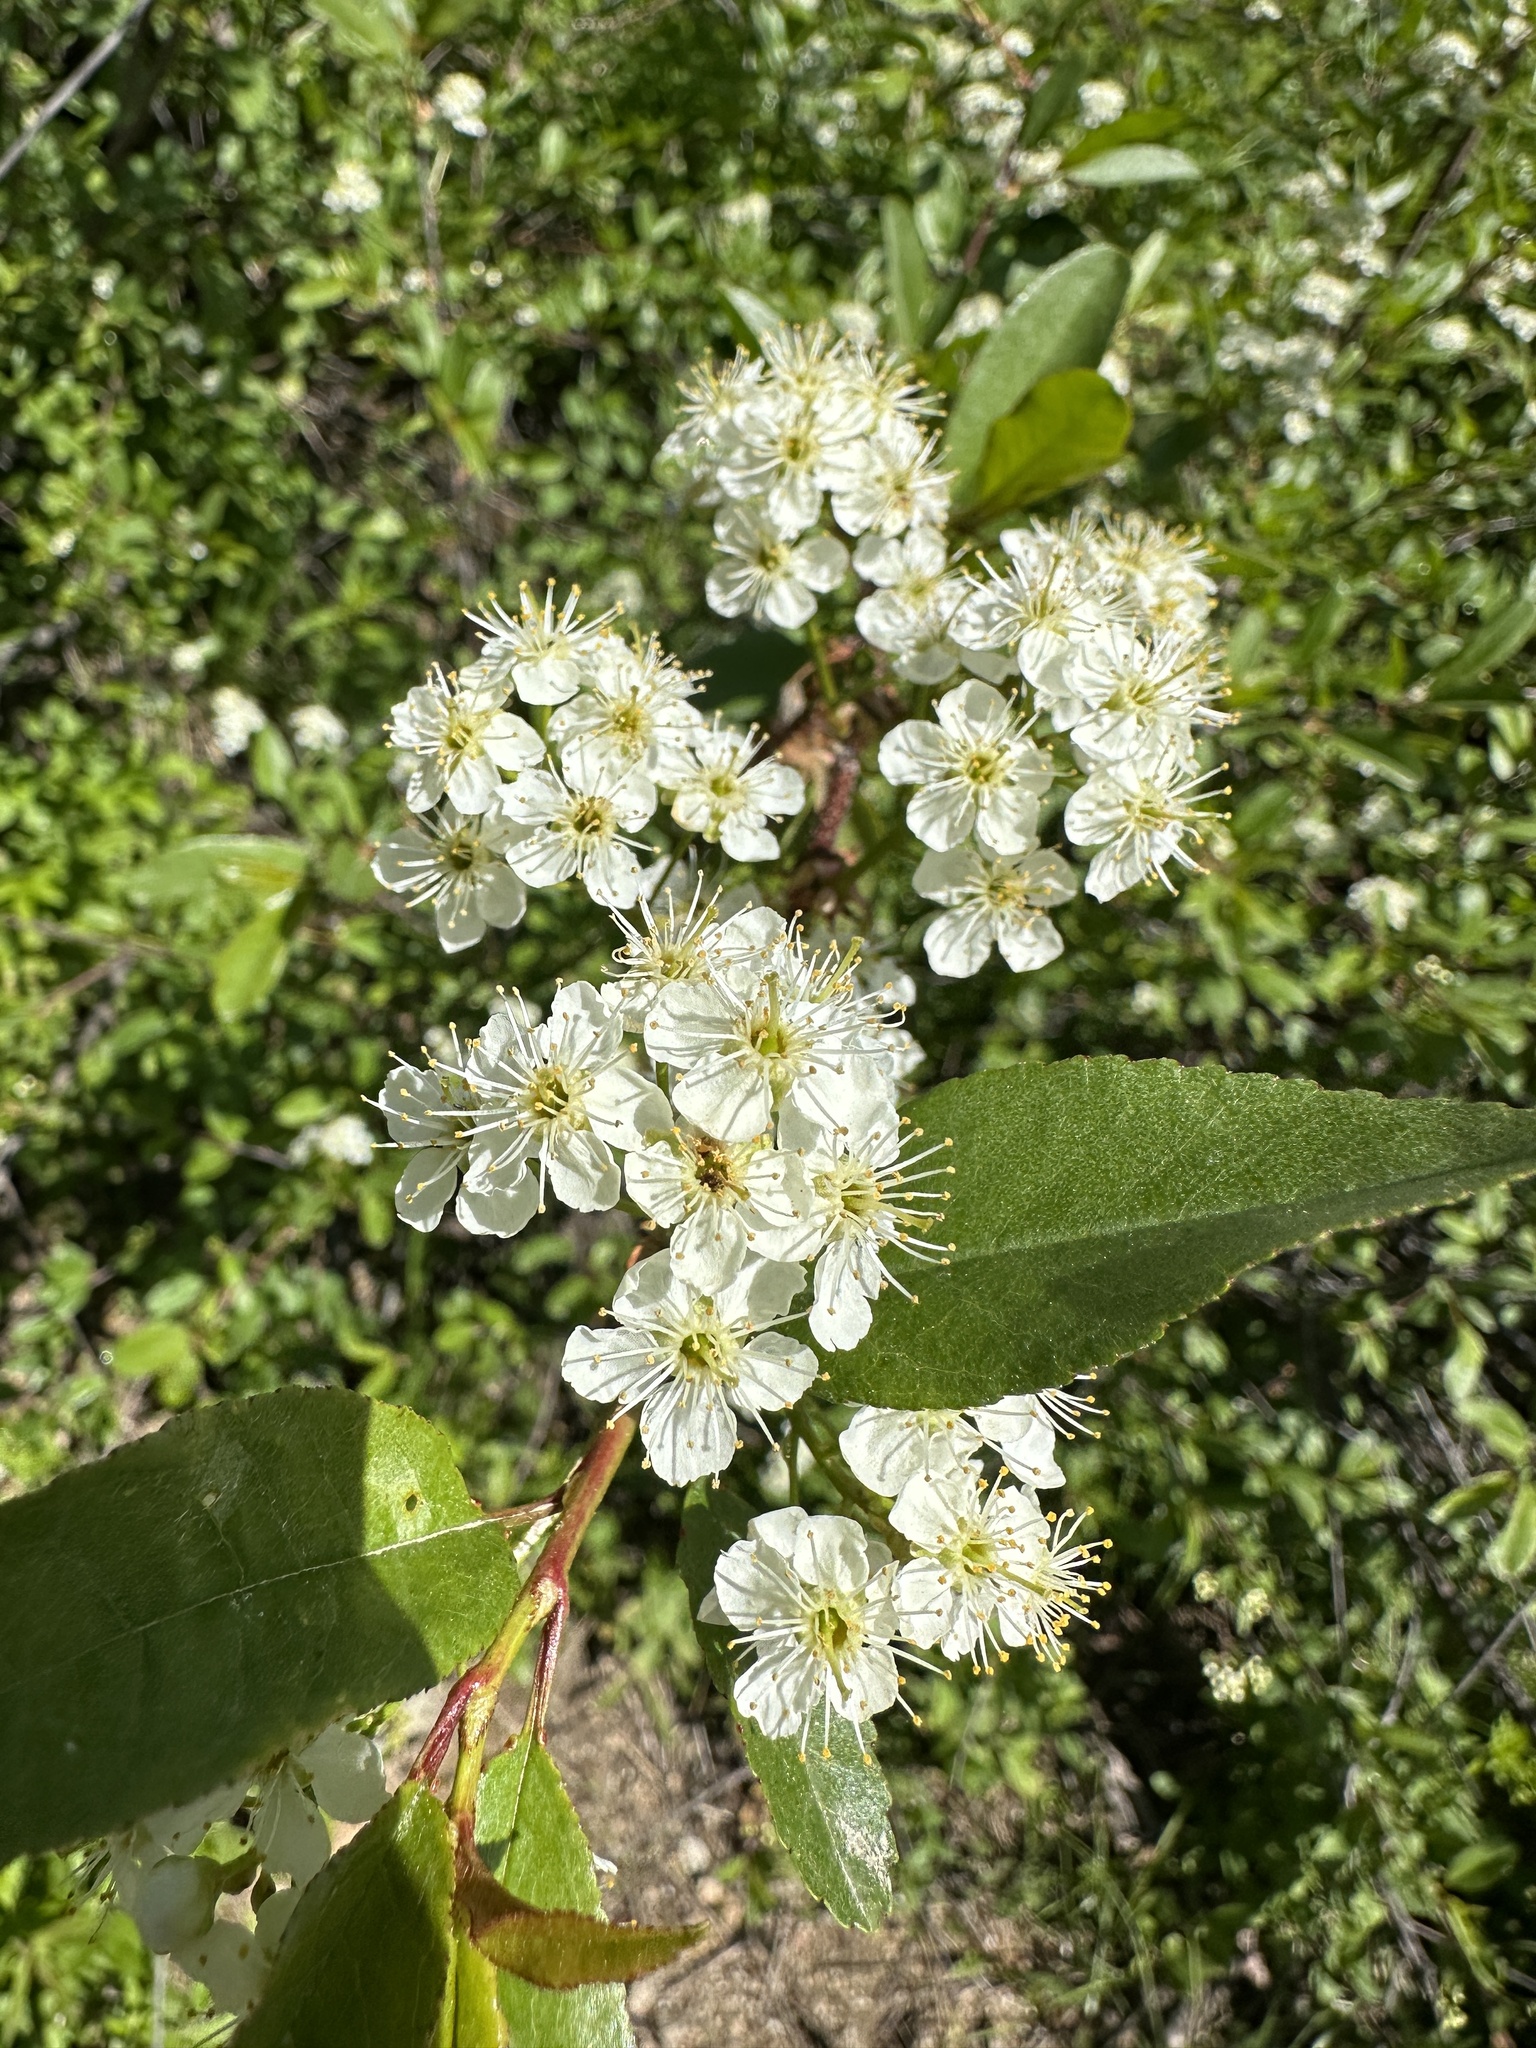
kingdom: Plantae
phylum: Tracheophyta
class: Magnoliopsida
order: Rosales
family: Rosaceae
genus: Prunus
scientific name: Prunus emarginata
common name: Bitter cherry
